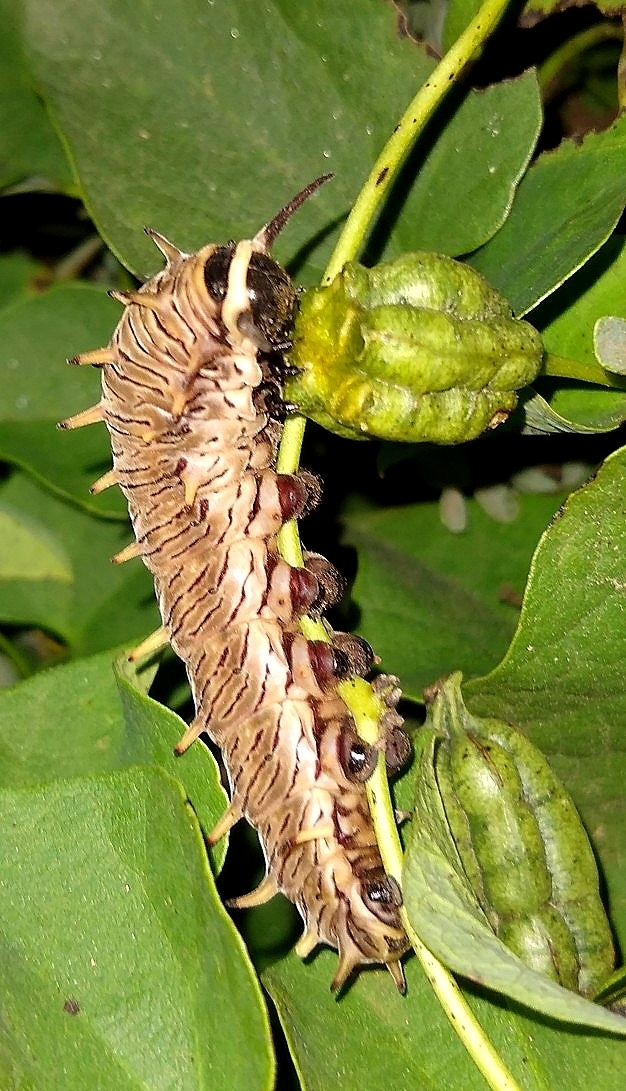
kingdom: Animalia
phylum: Arthropoda
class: Insecta
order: Lepidoptera
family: Papilionidae
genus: Battus
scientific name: Battus polydamas
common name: Polydamas swallowtail
